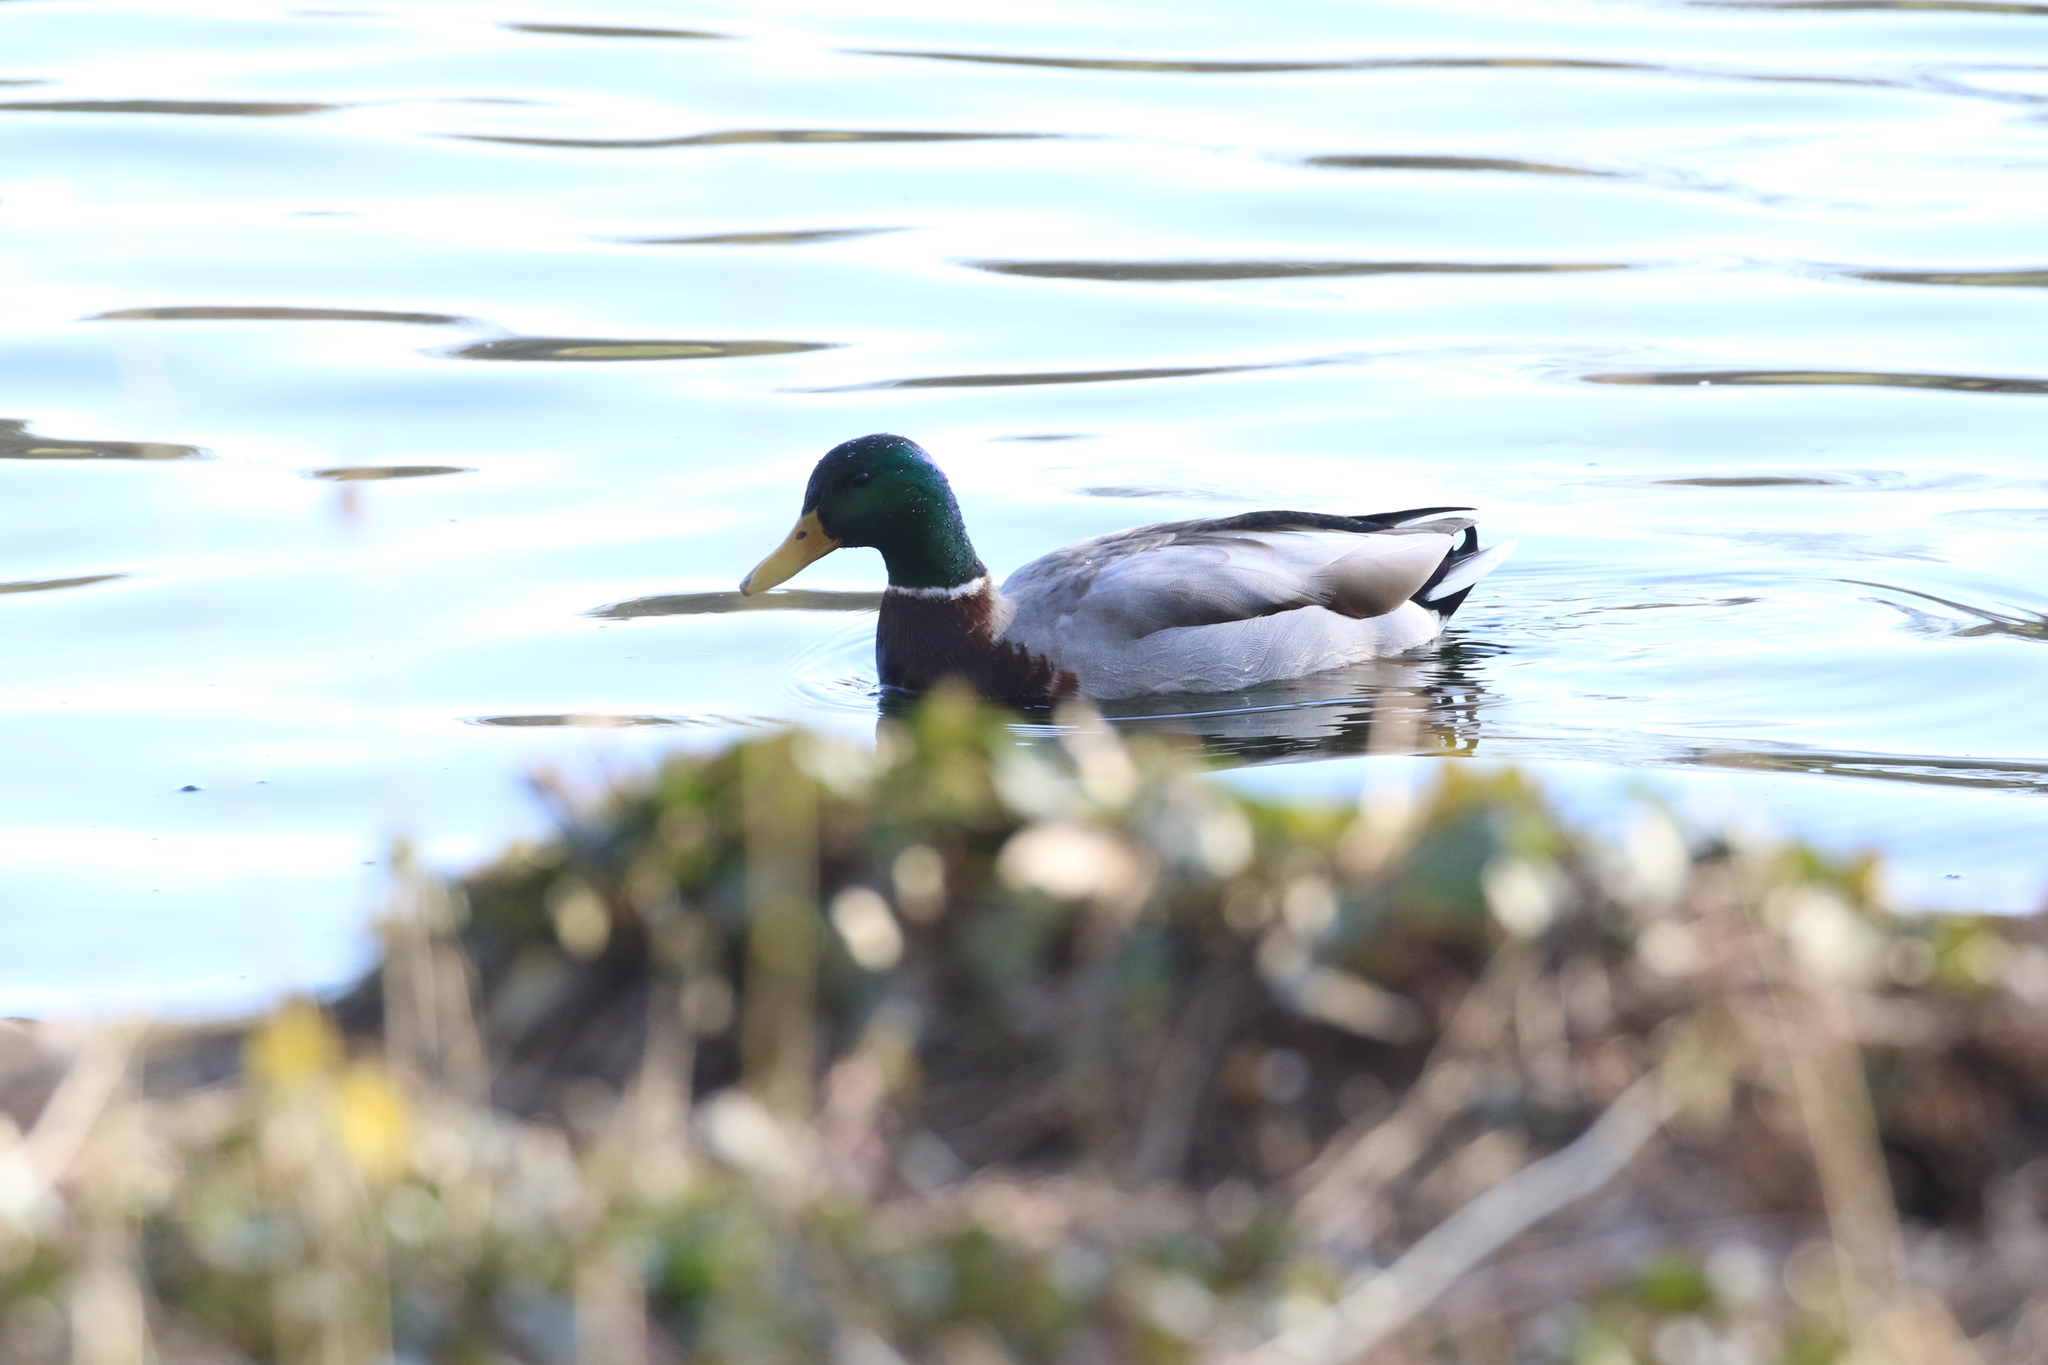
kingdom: Animalia
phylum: Chordata
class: Aves
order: Anseriformes
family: Anatidae
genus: Anas
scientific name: Anas platyrhynchos
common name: Mallard
